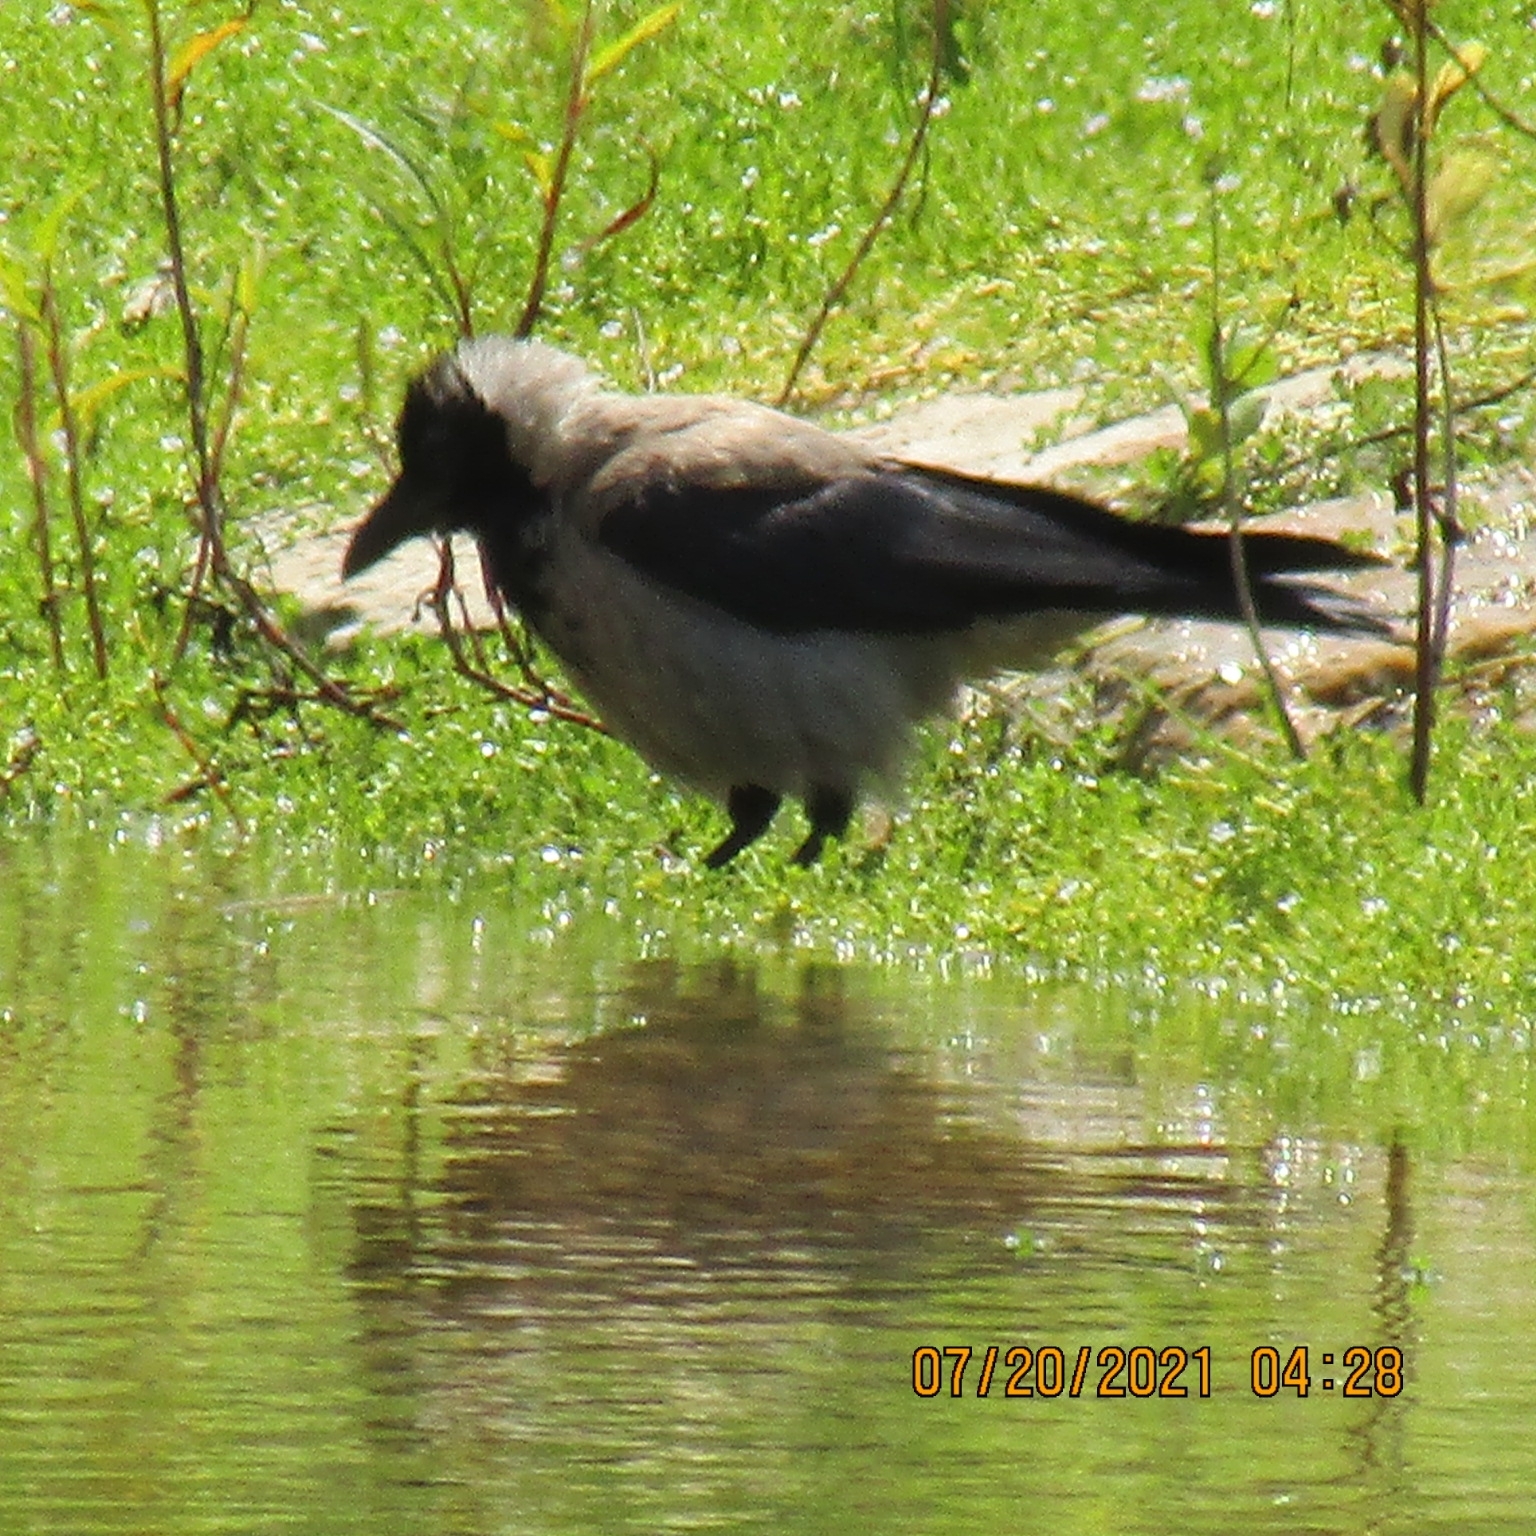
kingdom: Animalia
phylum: Chordata
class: Aves
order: Passeriformes
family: Corvidae
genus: Corvus
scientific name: Corvus cornix
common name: Hooded crow
